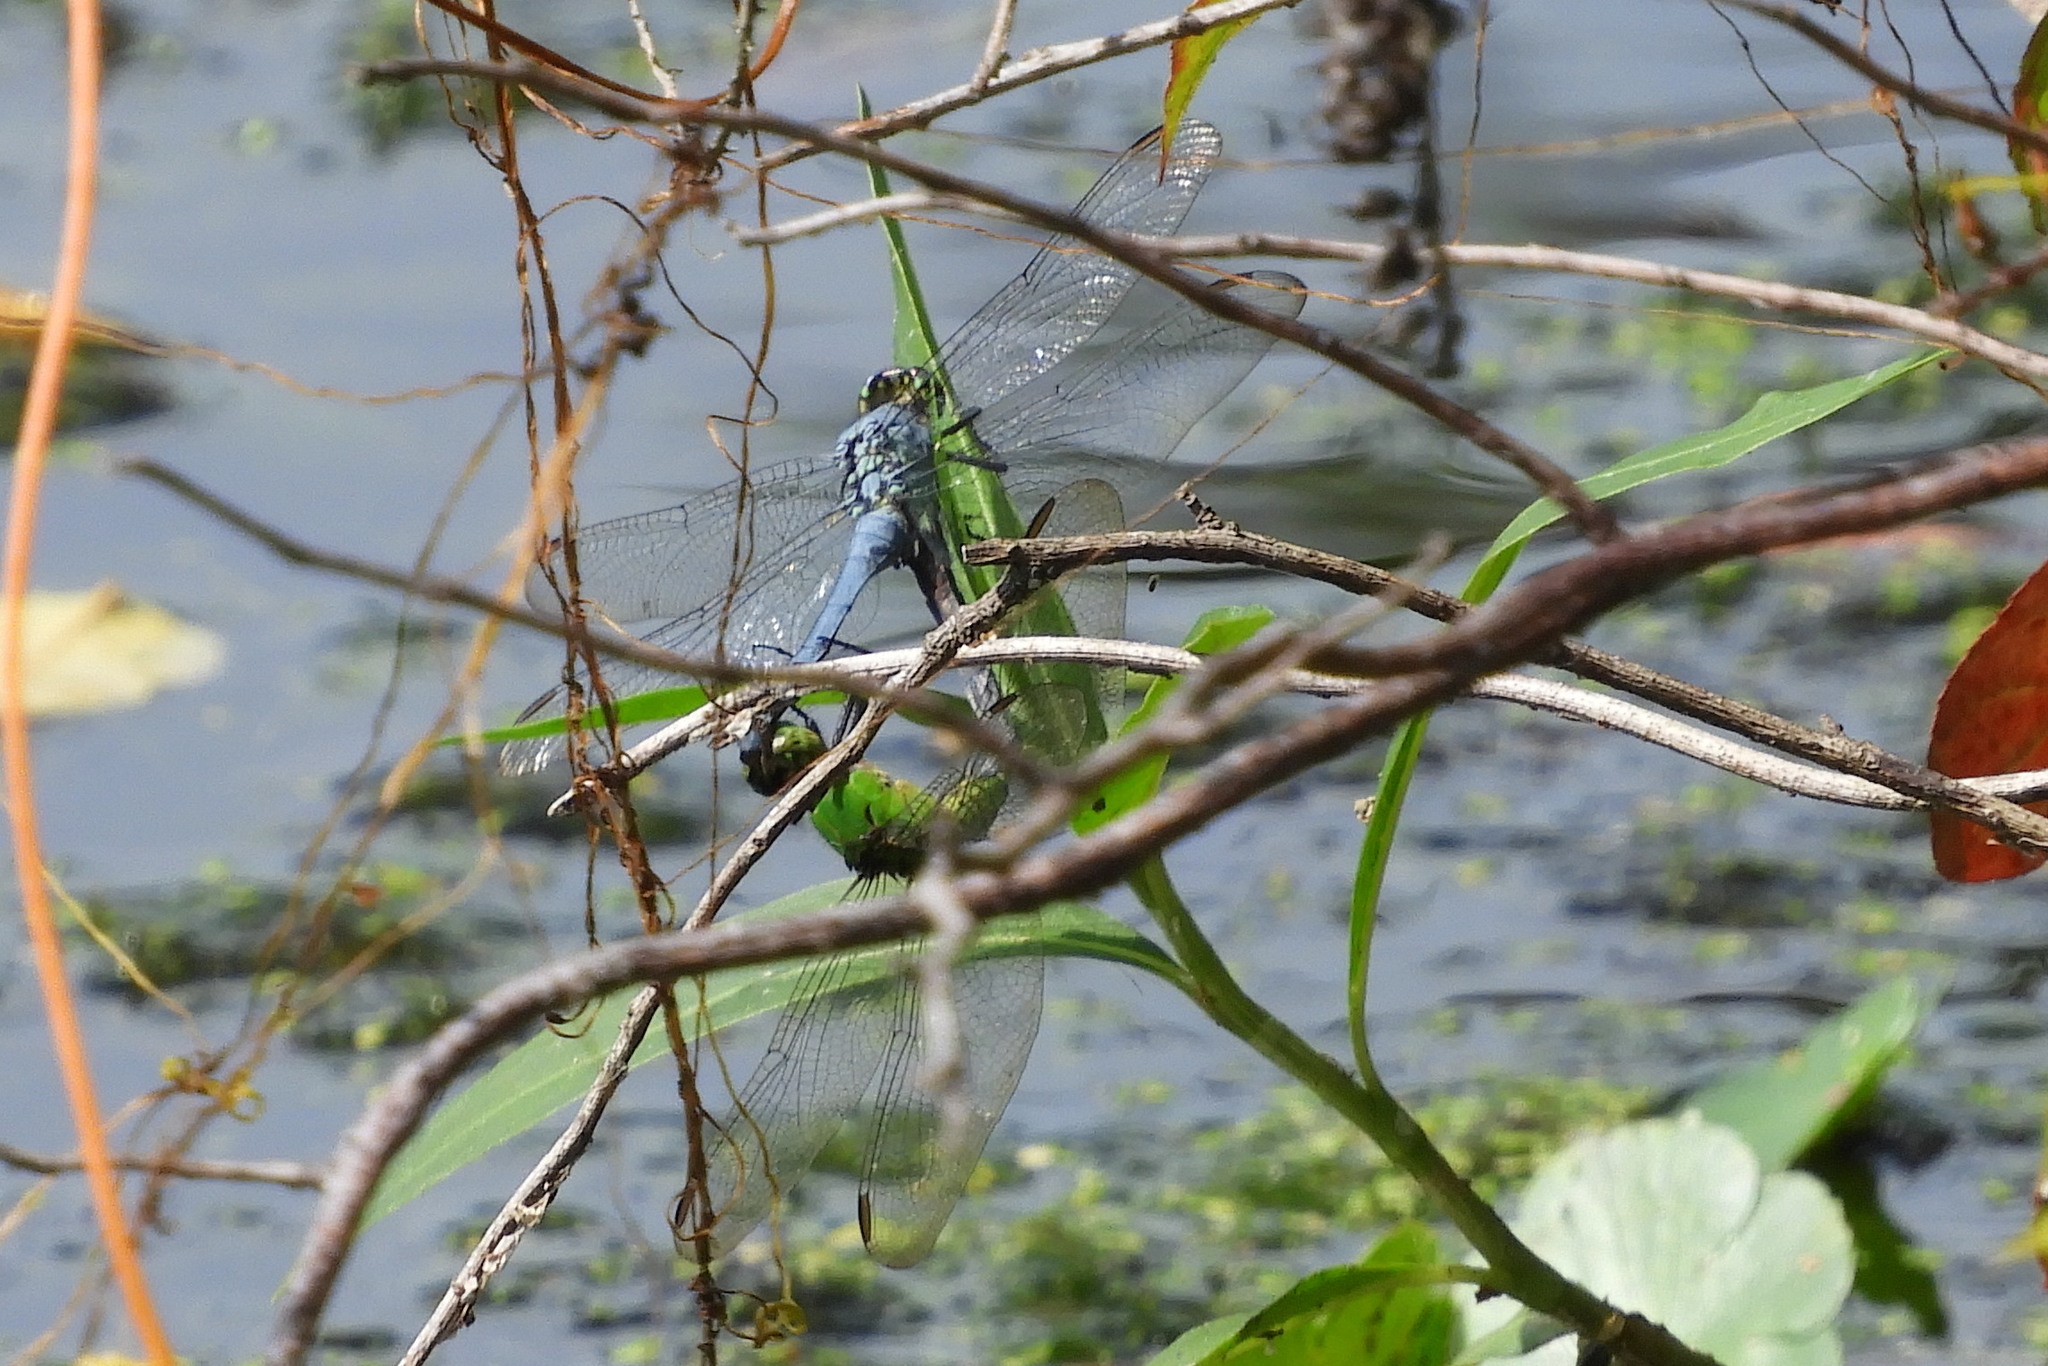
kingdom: Animalia
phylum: Arthropoda
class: Insecta
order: Odonata
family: Libellulidae
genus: Erythemis
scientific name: Erythemis simplicicollis
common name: Eastern pondhawk
